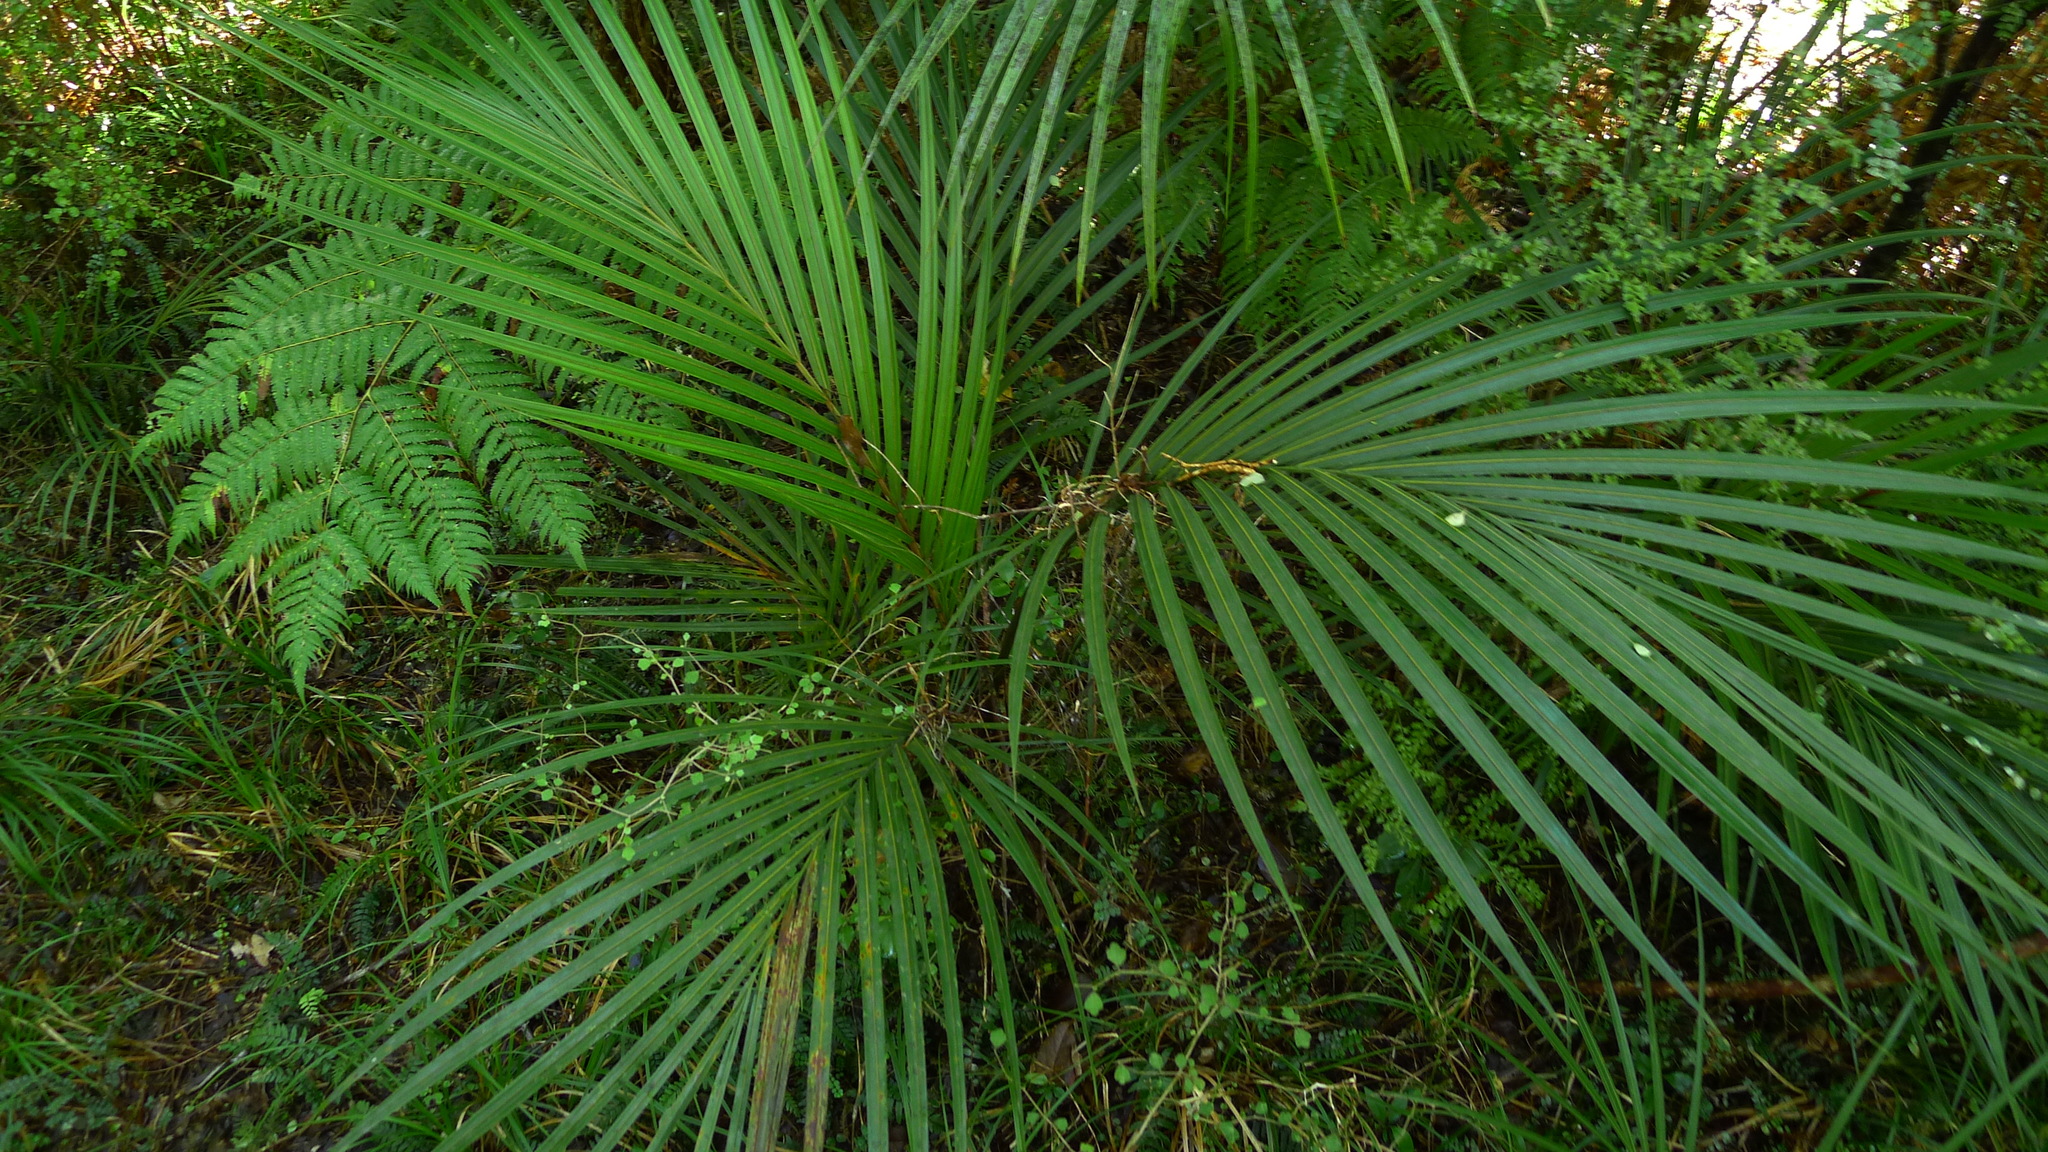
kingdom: Plantae
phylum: Tracheophyta
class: Liliopsida
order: Arecales
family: Arecaceae
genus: Rhopalostylis
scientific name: Rhopalostylis sapida
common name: Feather-duster palm
